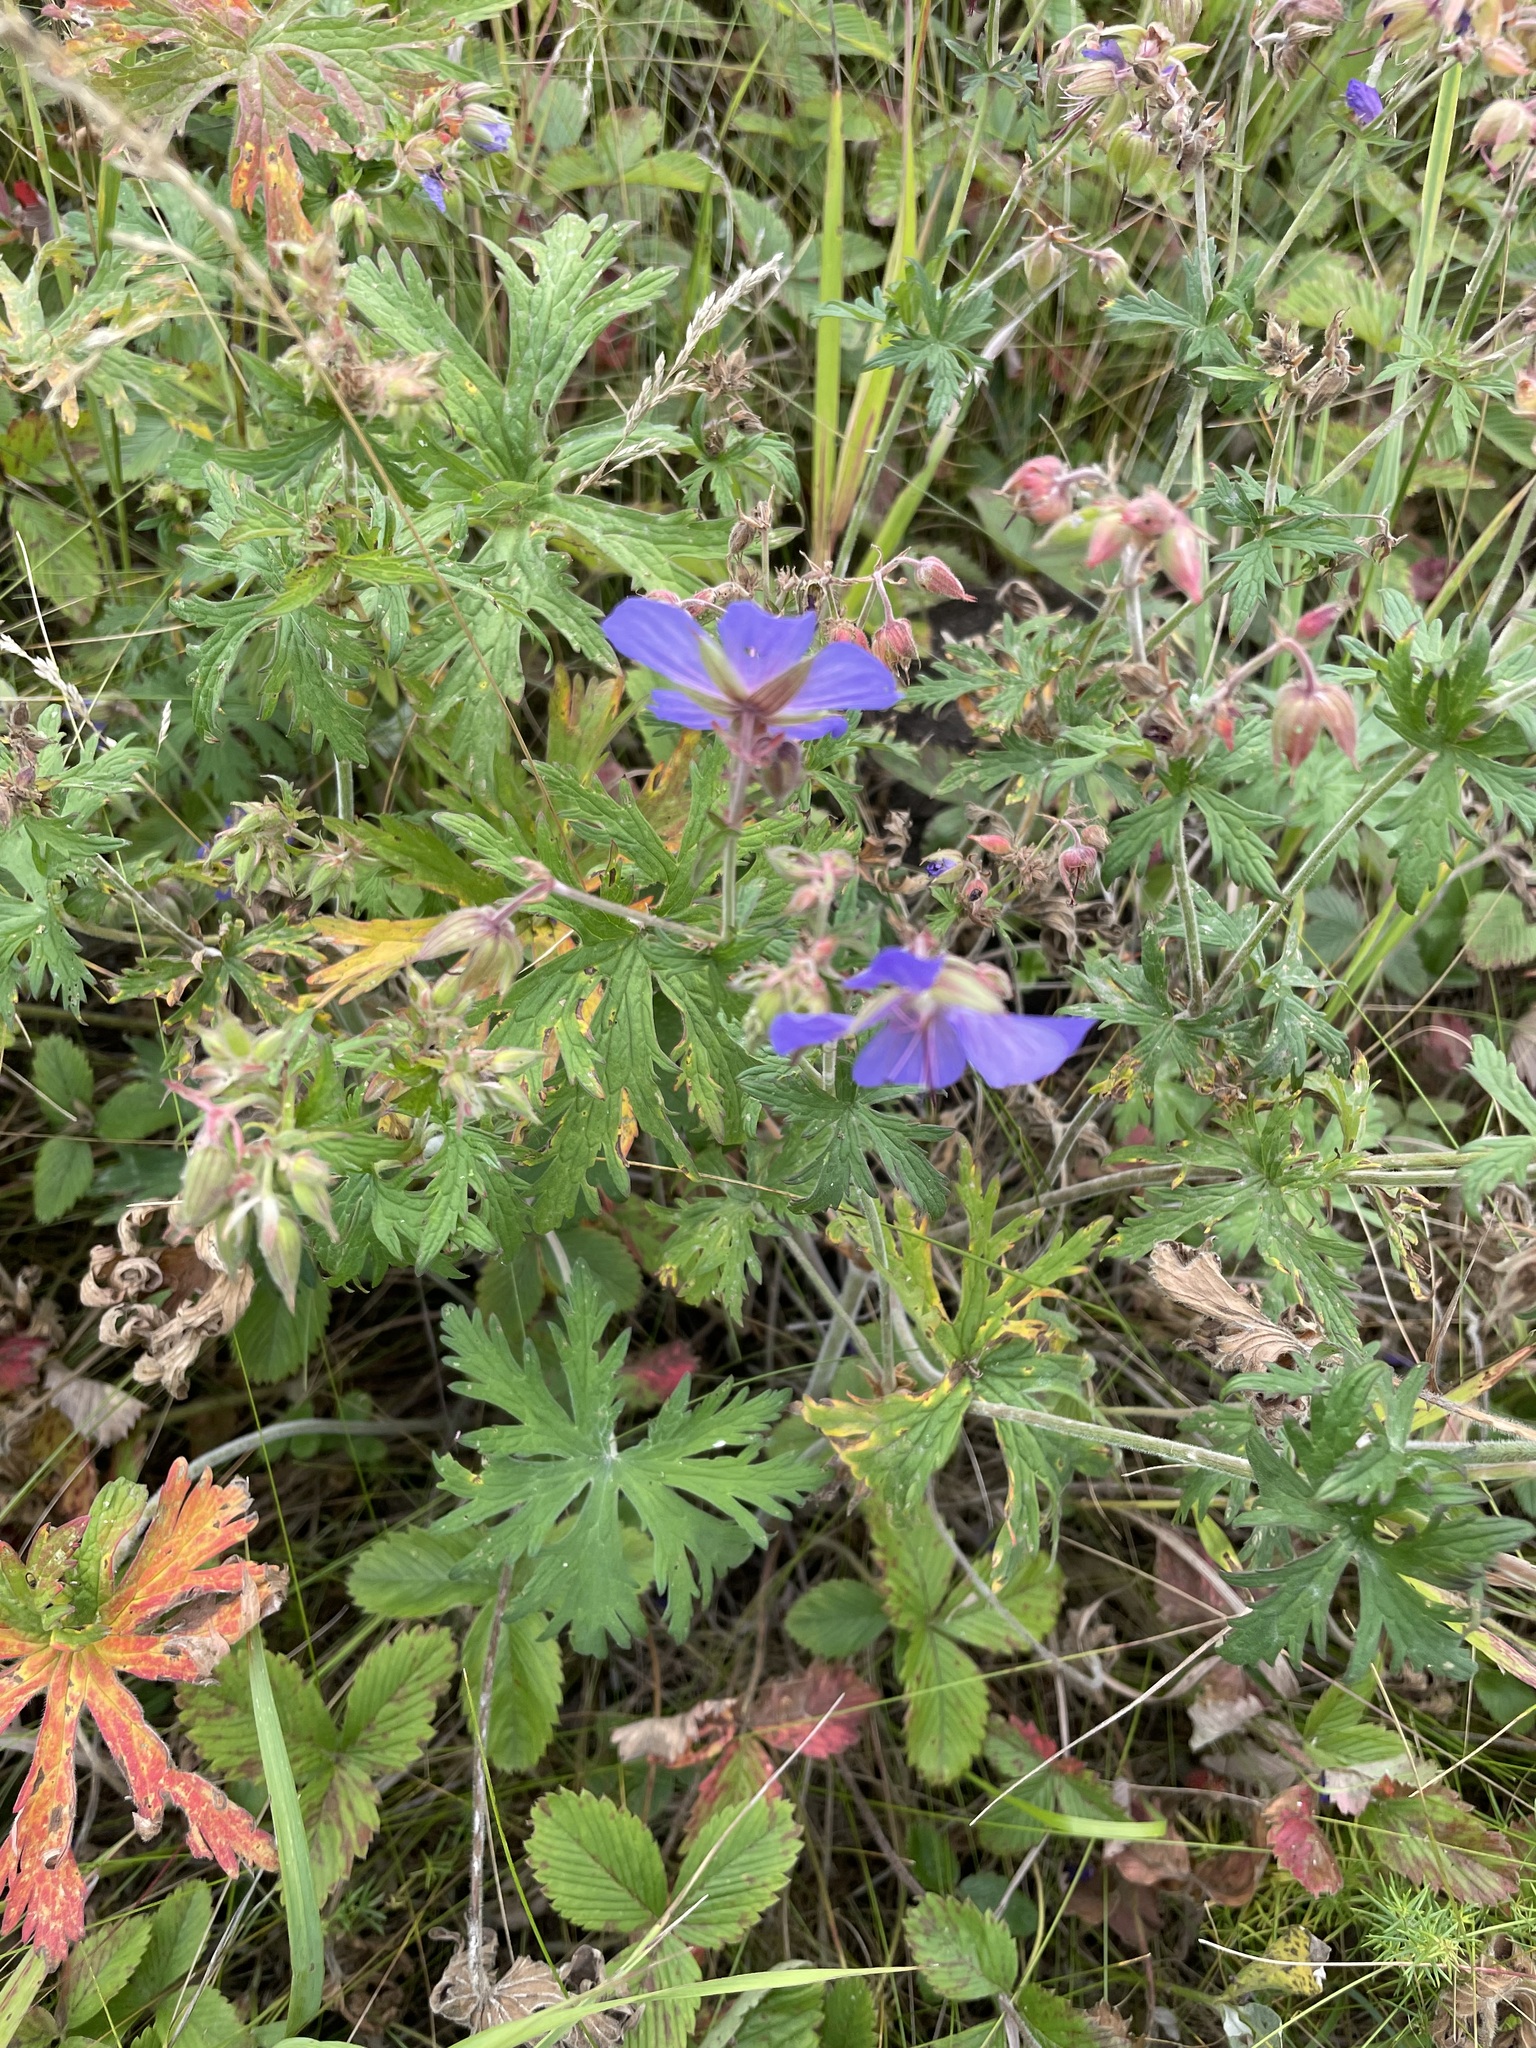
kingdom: Plantae
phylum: Tracheophyta
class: Magnoliopsida
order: Geraniales
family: Geraniaceae
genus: Geranium
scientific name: Geranium pratense
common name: Meadow crane's-bill
